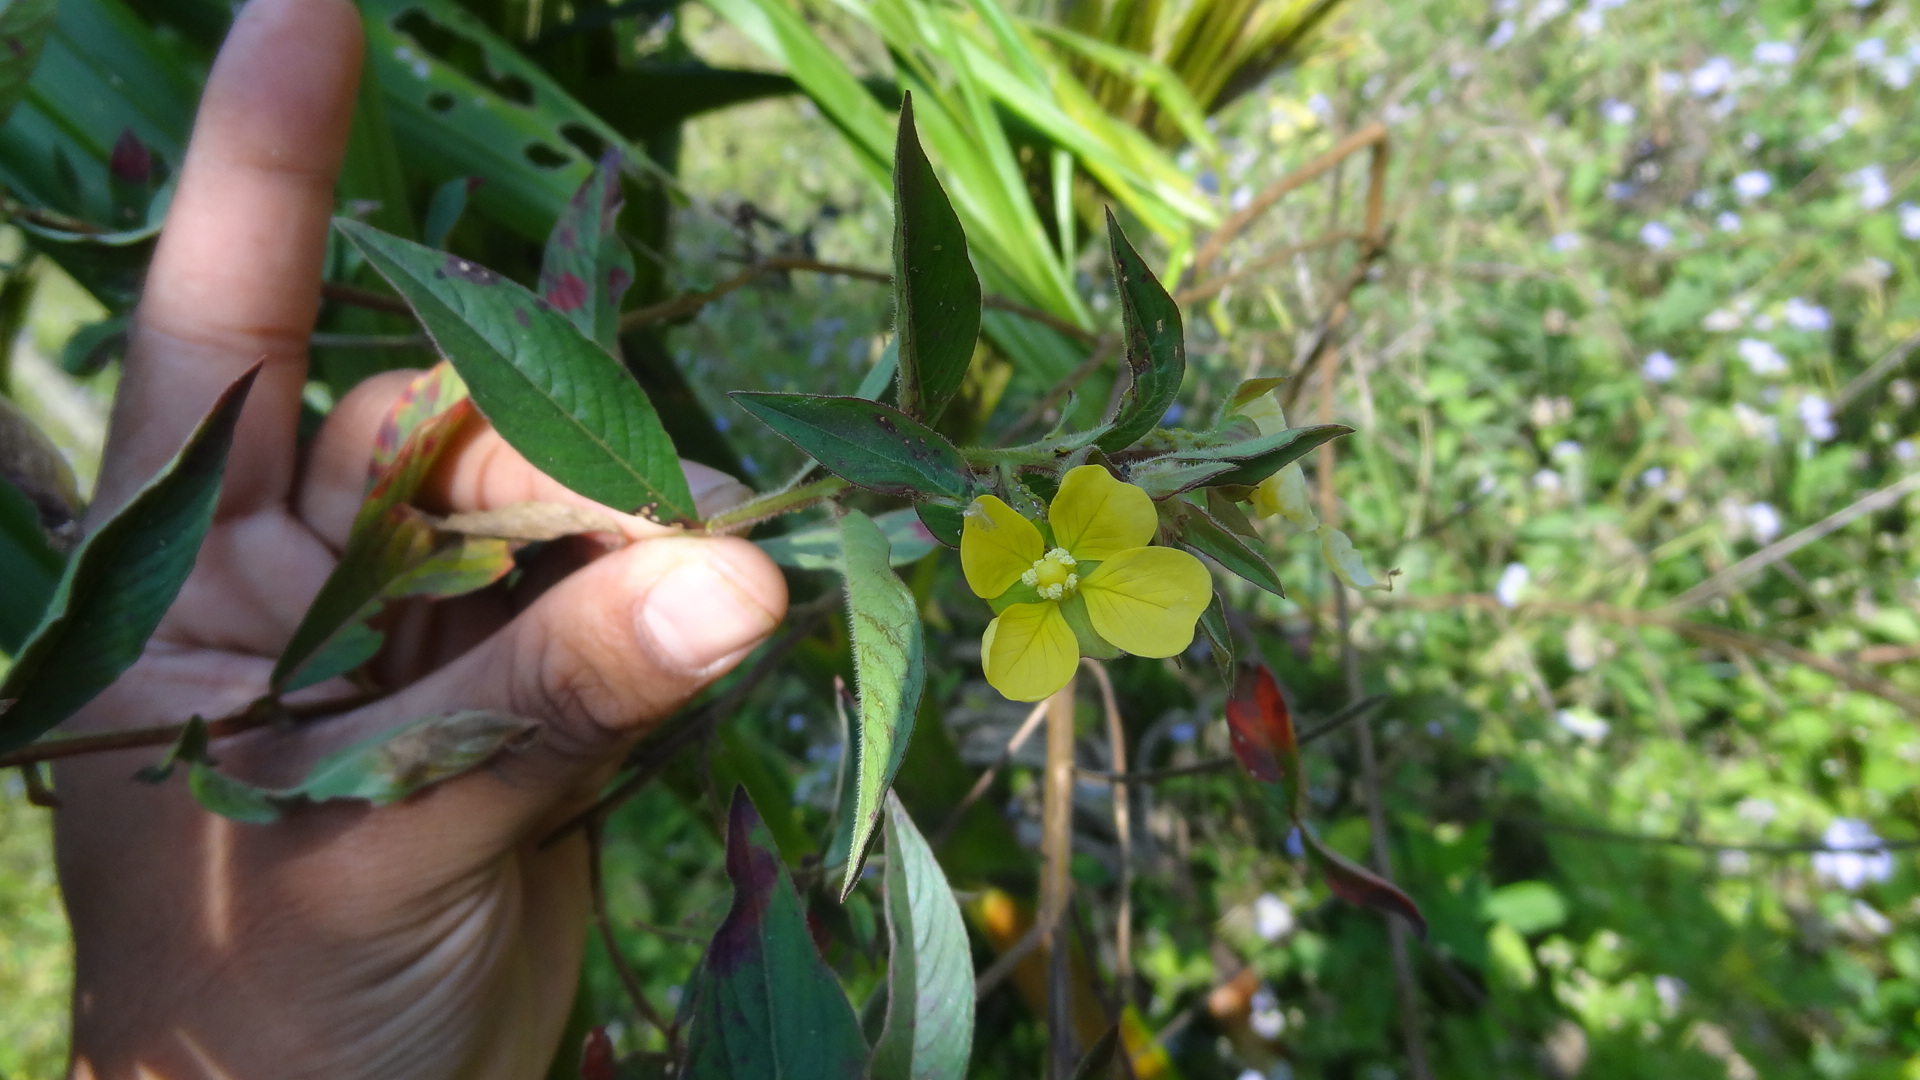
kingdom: Plantae
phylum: Tracheophyta
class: Magnoliopsida
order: Myrtales
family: Onagraceae
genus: Ludwigia
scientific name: Ludwigia octovalvis
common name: Water-primrose
